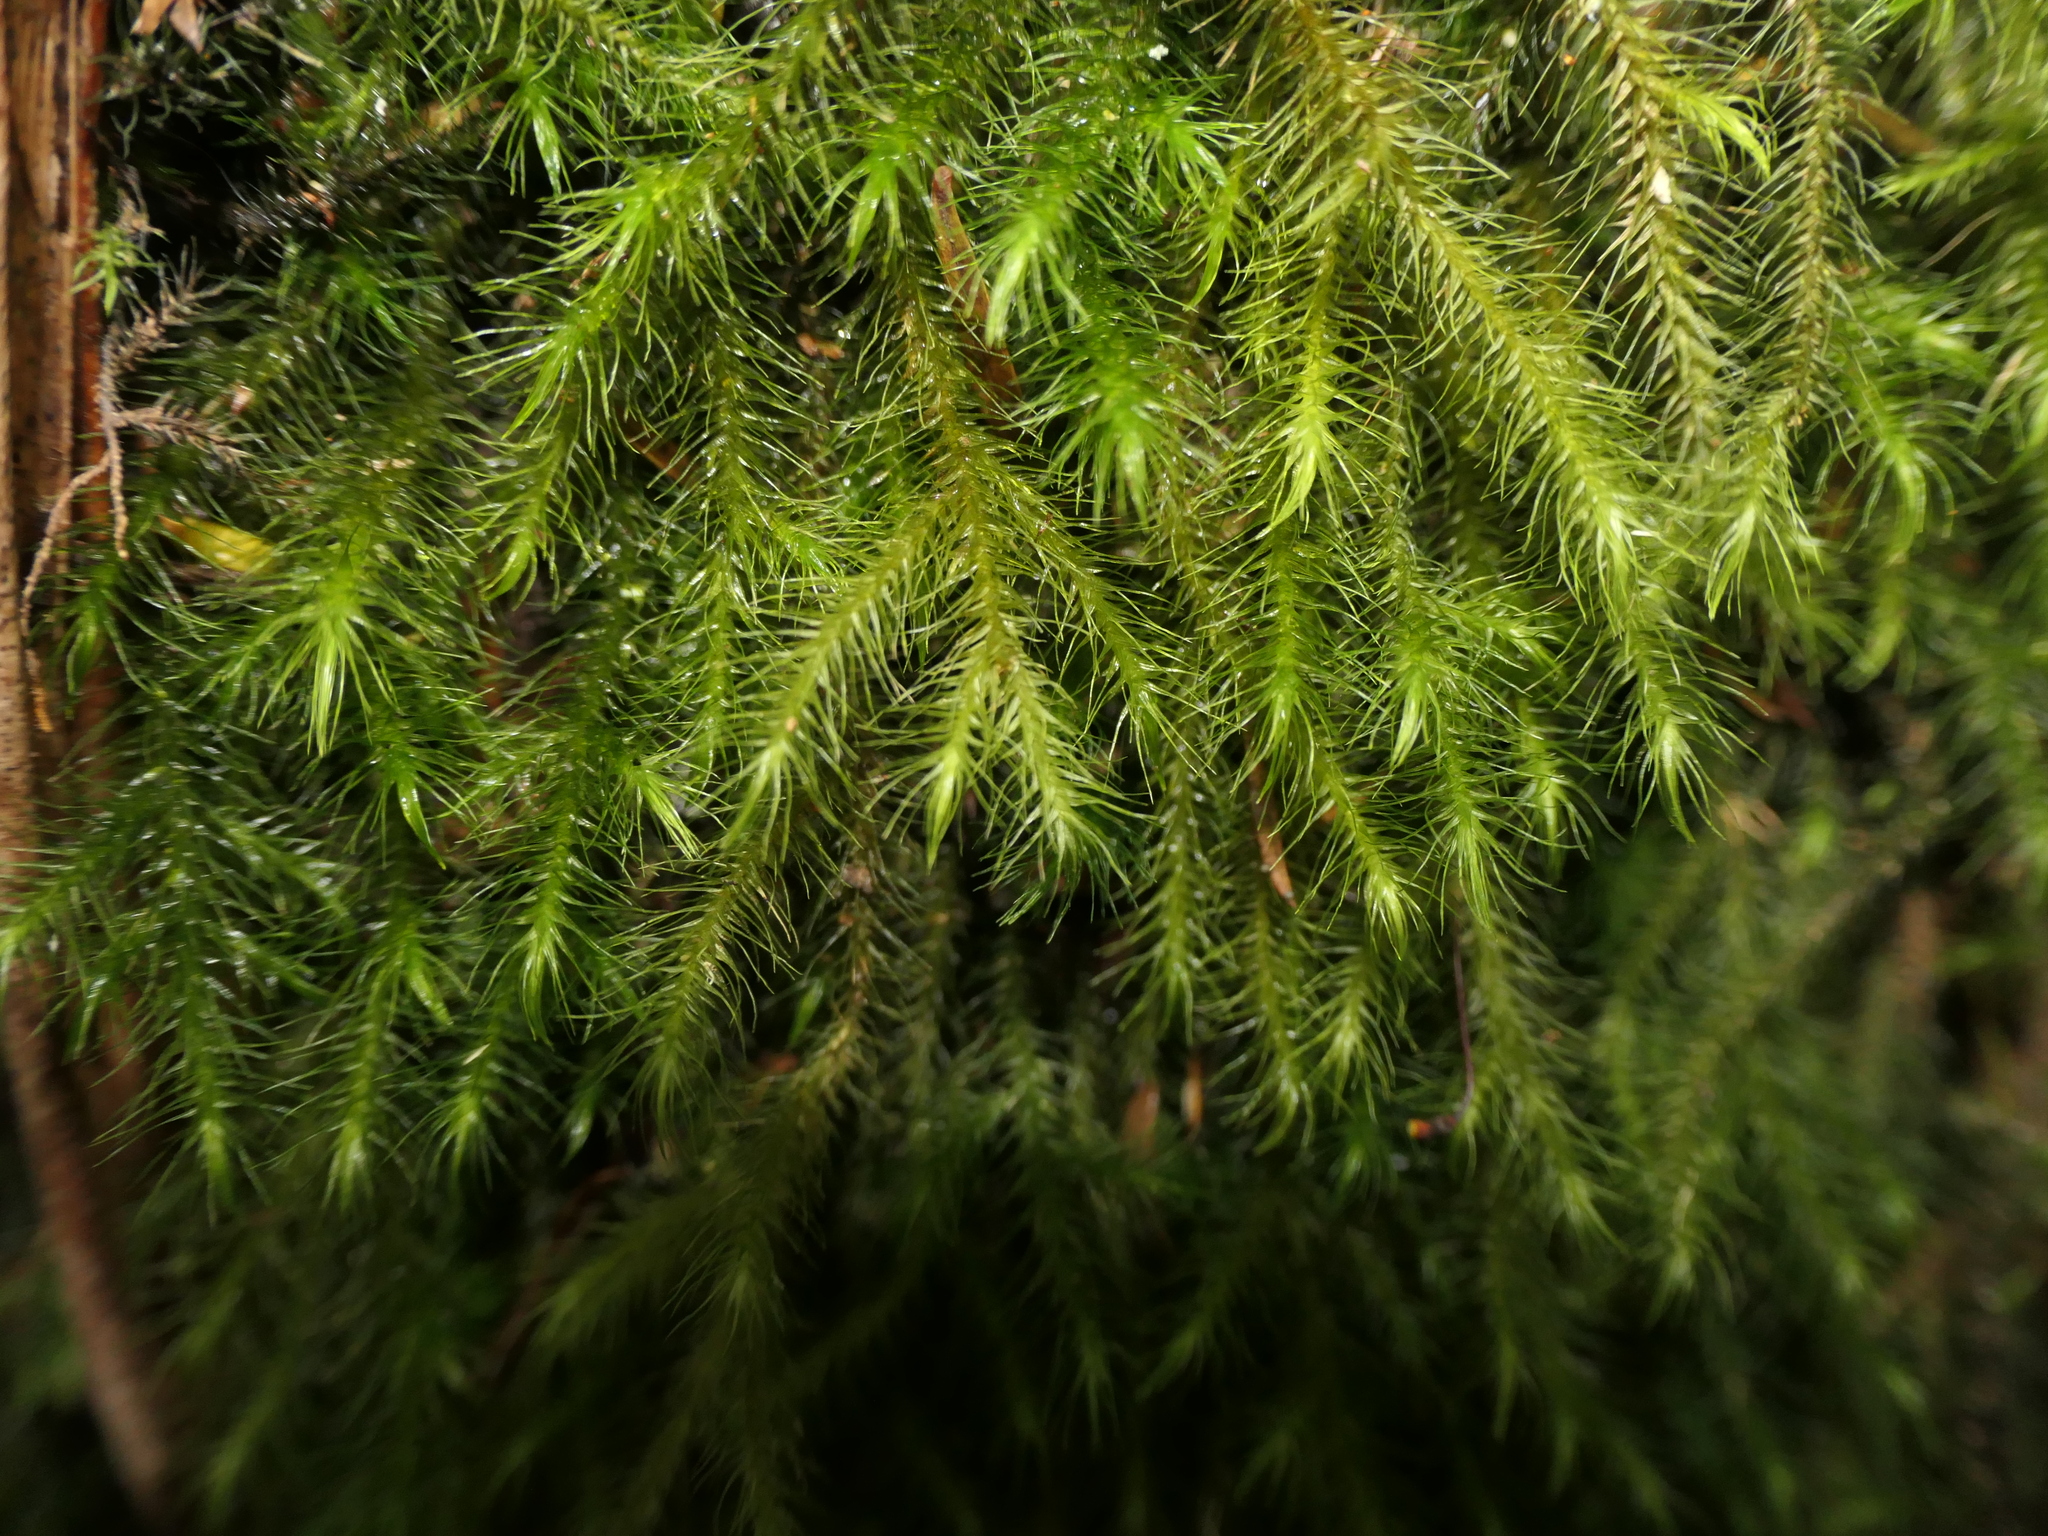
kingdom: Plantae
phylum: Bryophyta
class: Bryopsida
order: Hypnales
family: Neckeraceae
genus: Echinodiopsis
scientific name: Echinodiopsis hispida
